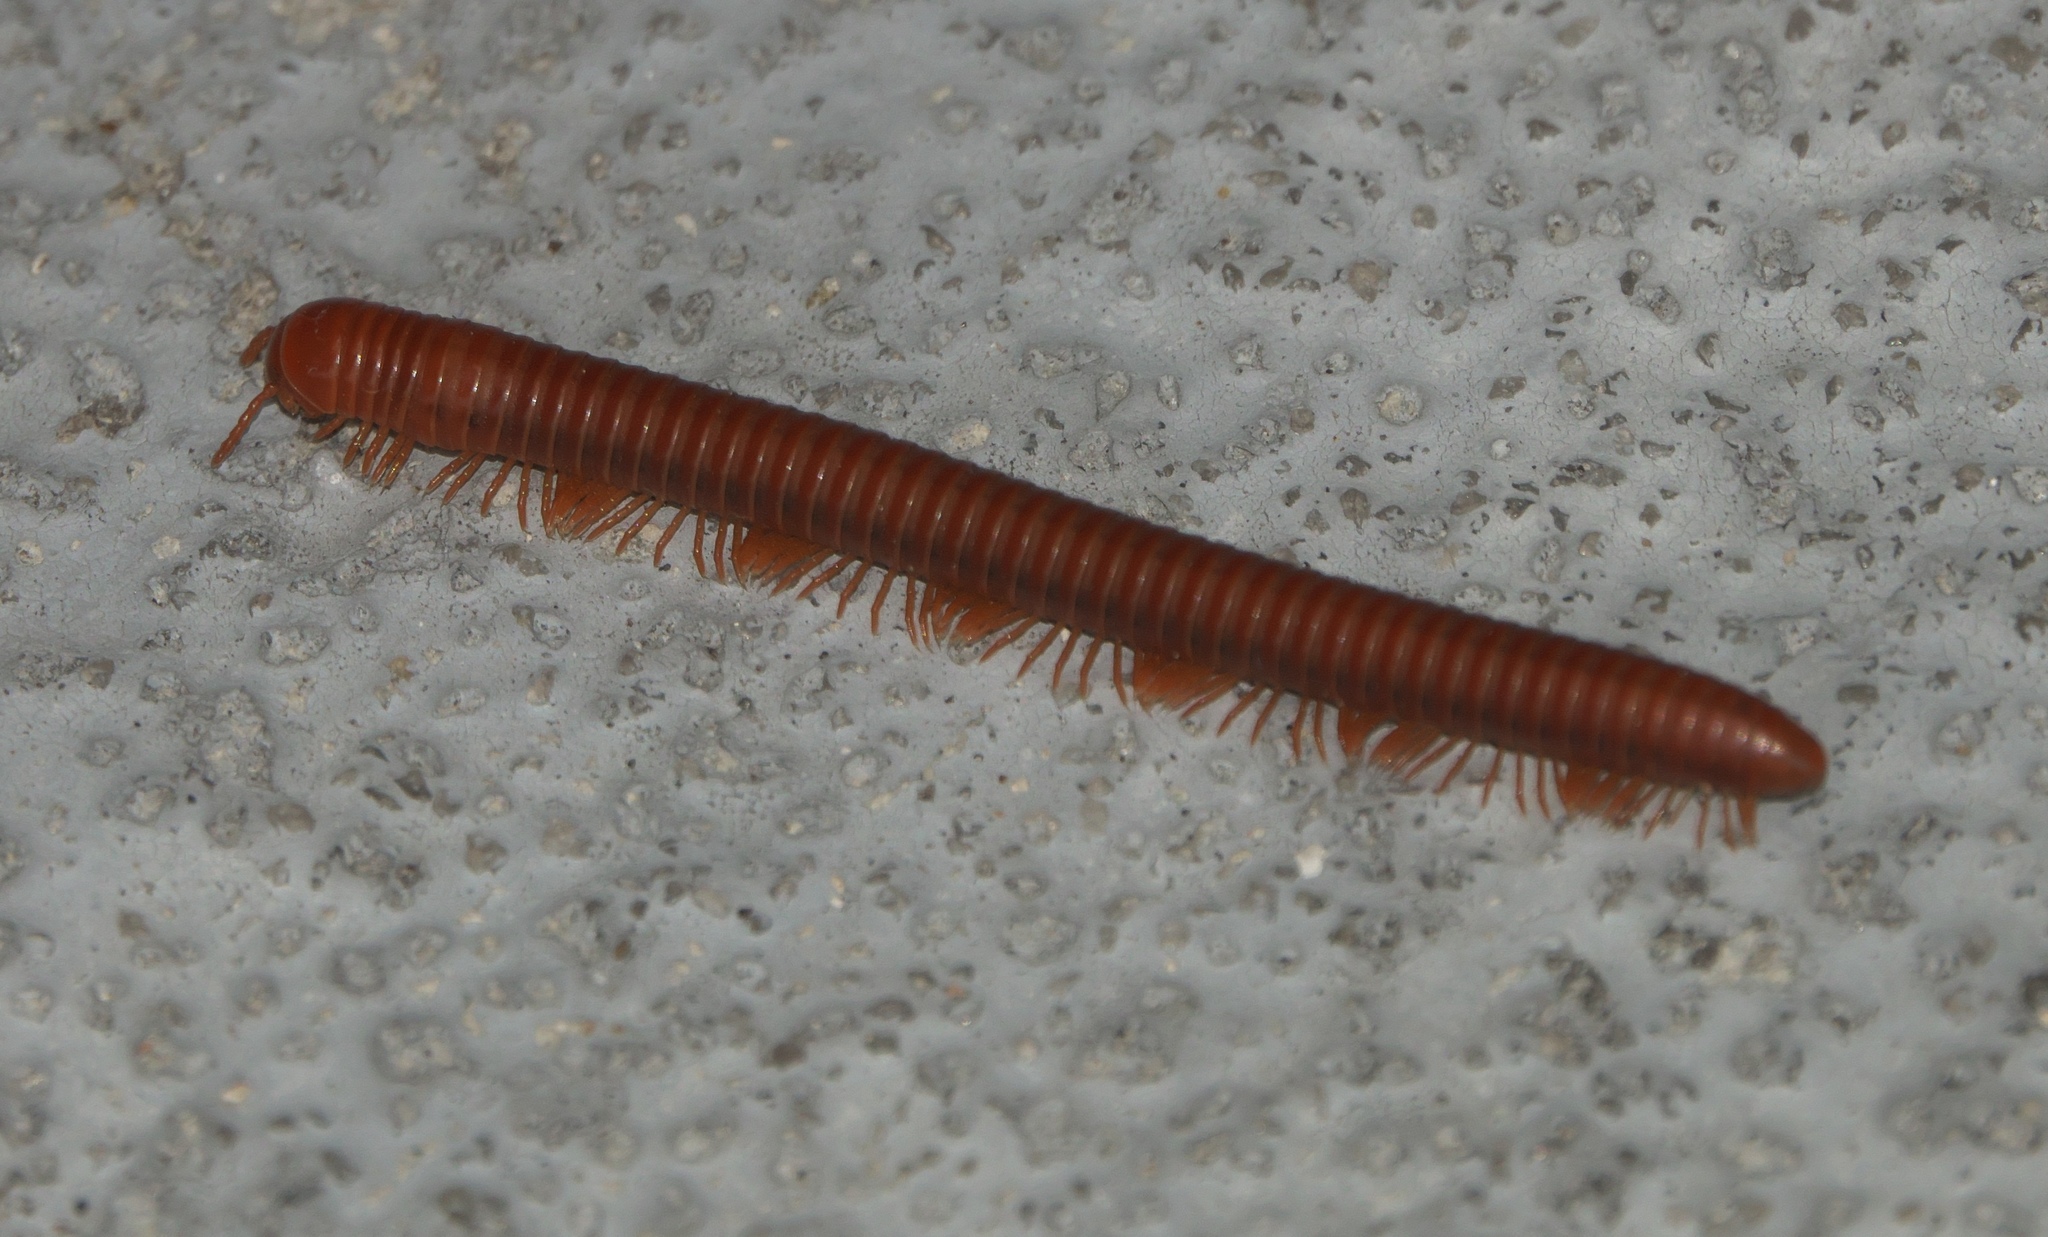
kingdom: Animalia
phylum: Arthropoda
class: Diplopoda
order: Spirobolida
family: Pachybolidae
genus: Trigoniulus
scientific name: Trigoniulus corallinus
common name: Millipede
